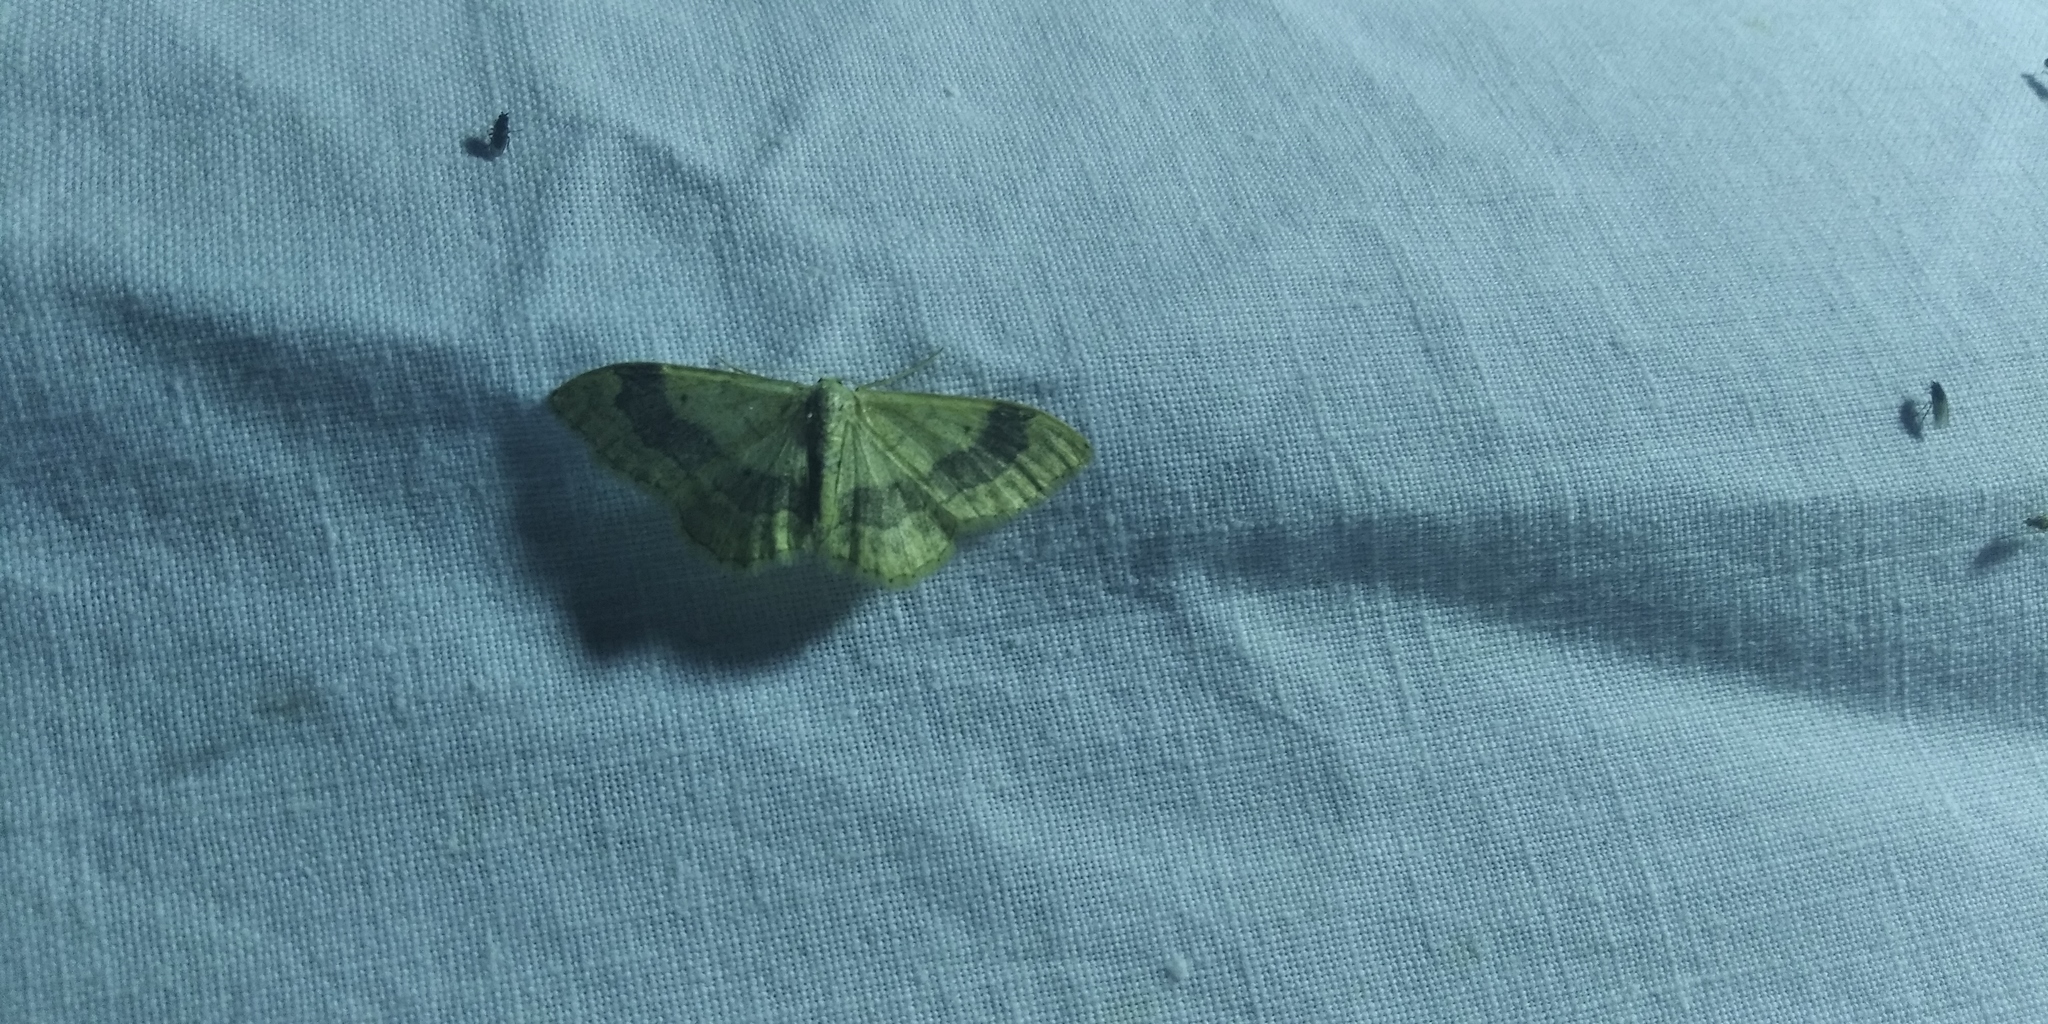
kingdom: Animalia
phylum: Arthropoda
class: Insecta
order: Lepidoptera
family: Geometridae
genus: Idaea
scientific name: Idaea aversata
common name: Riband wave
